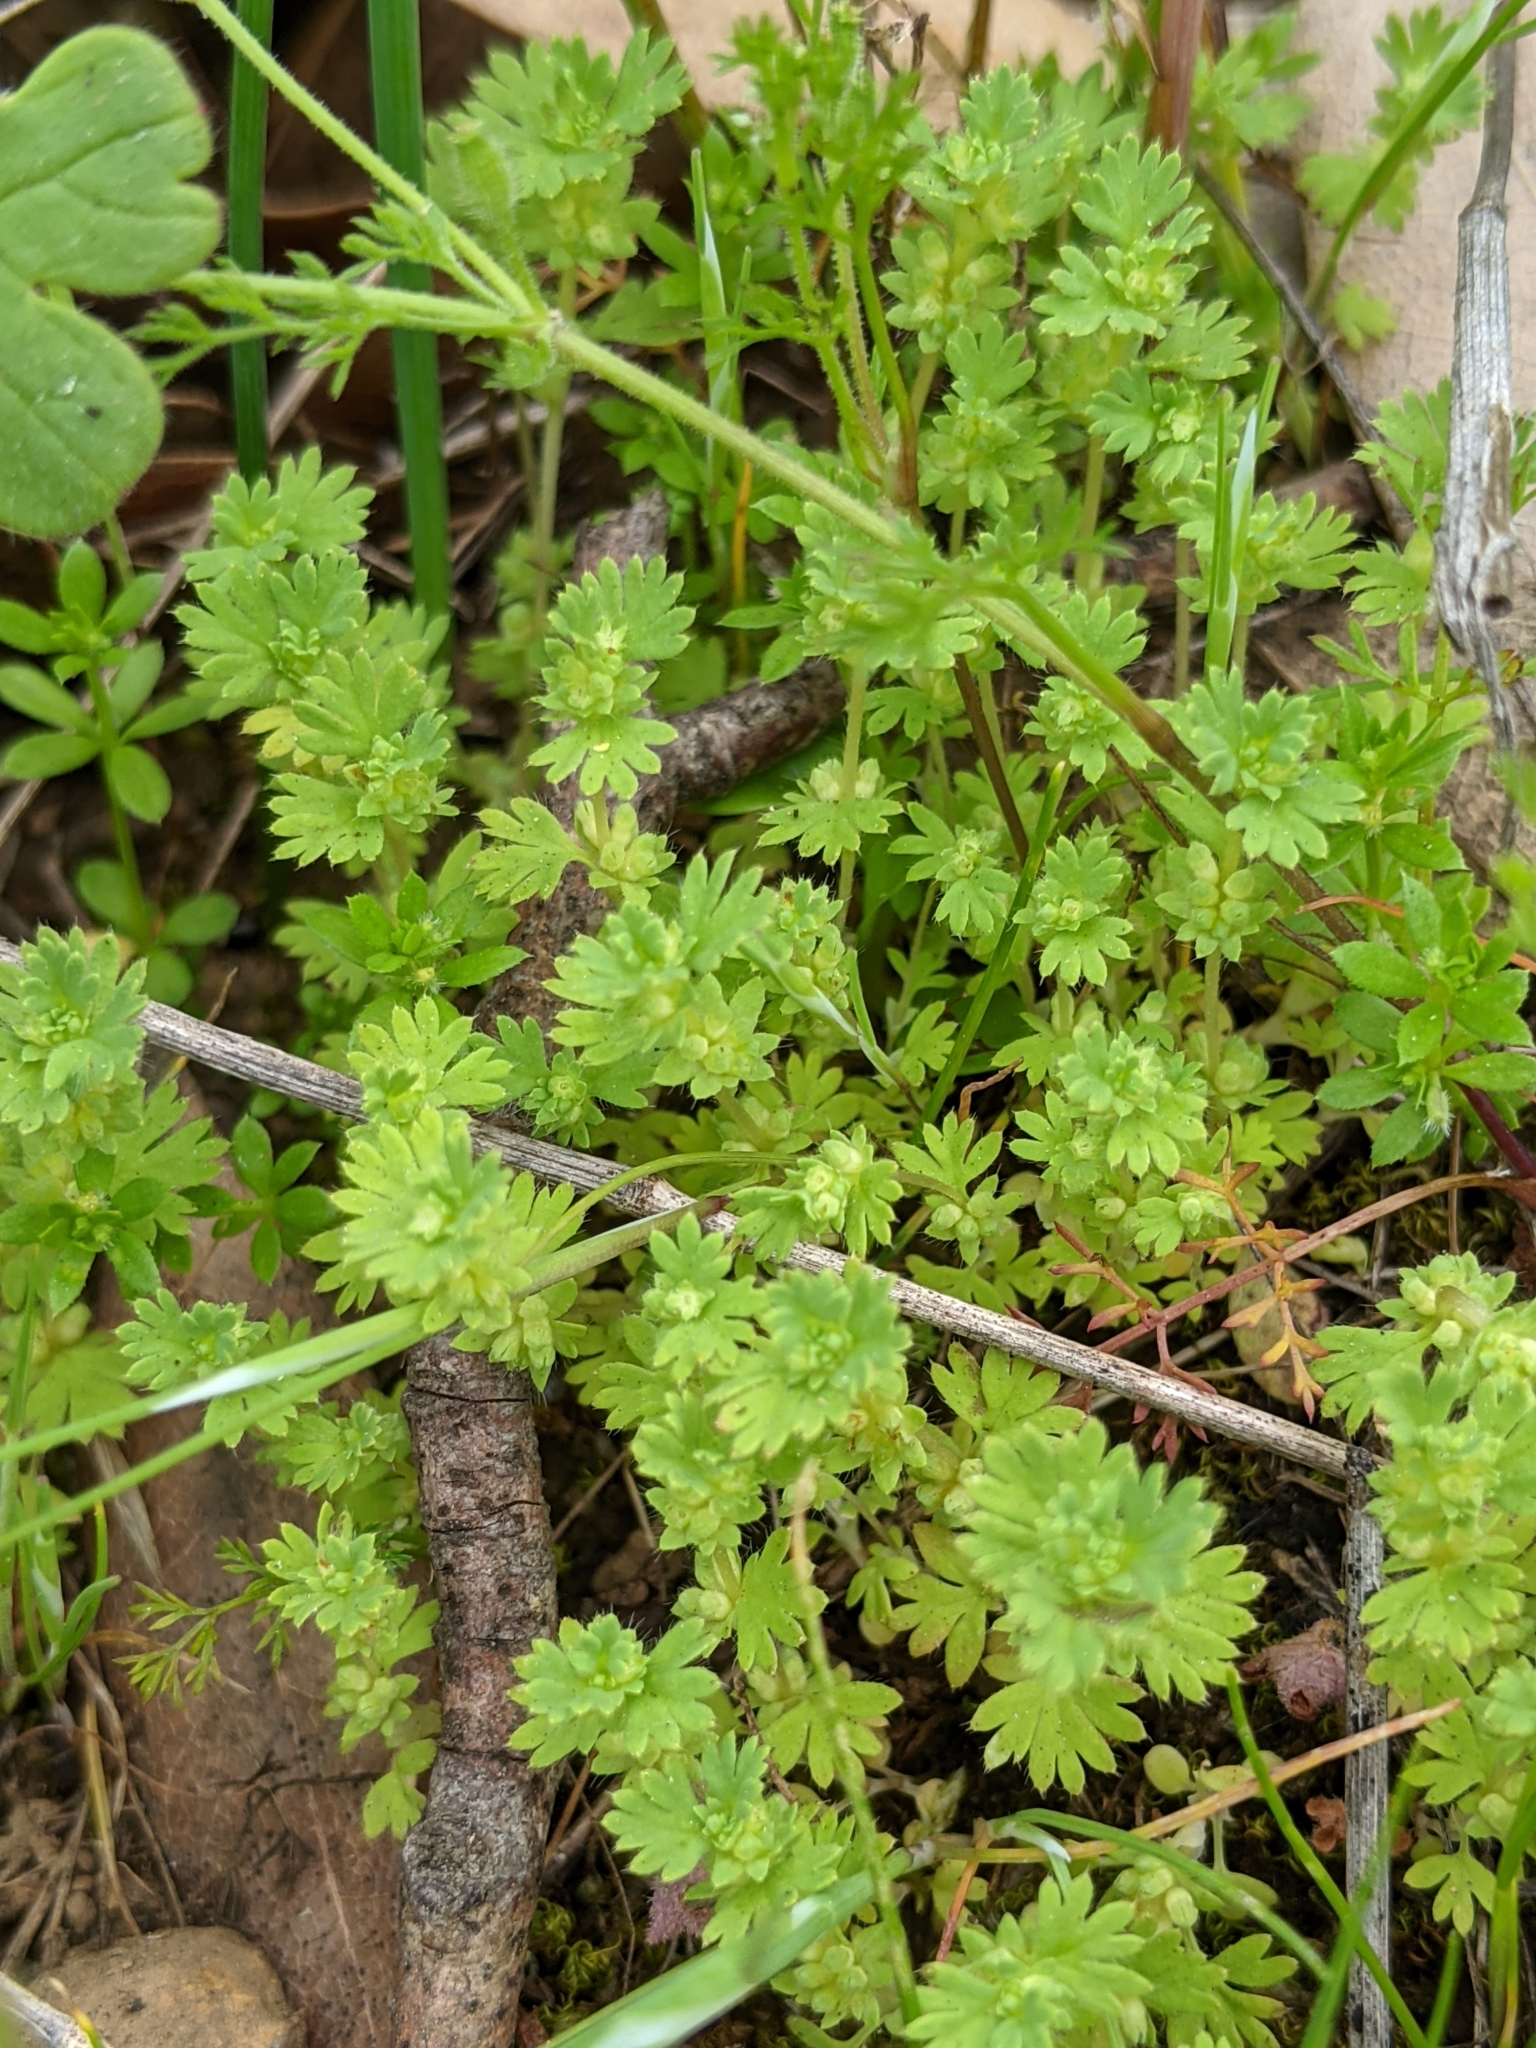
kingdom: Plantae
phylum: Tracheophyta
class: Magnoliopsida
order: Rosales
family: Rosaceae
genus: Aphanes
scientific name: Aphanes arvensis
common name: Parsley-piert
